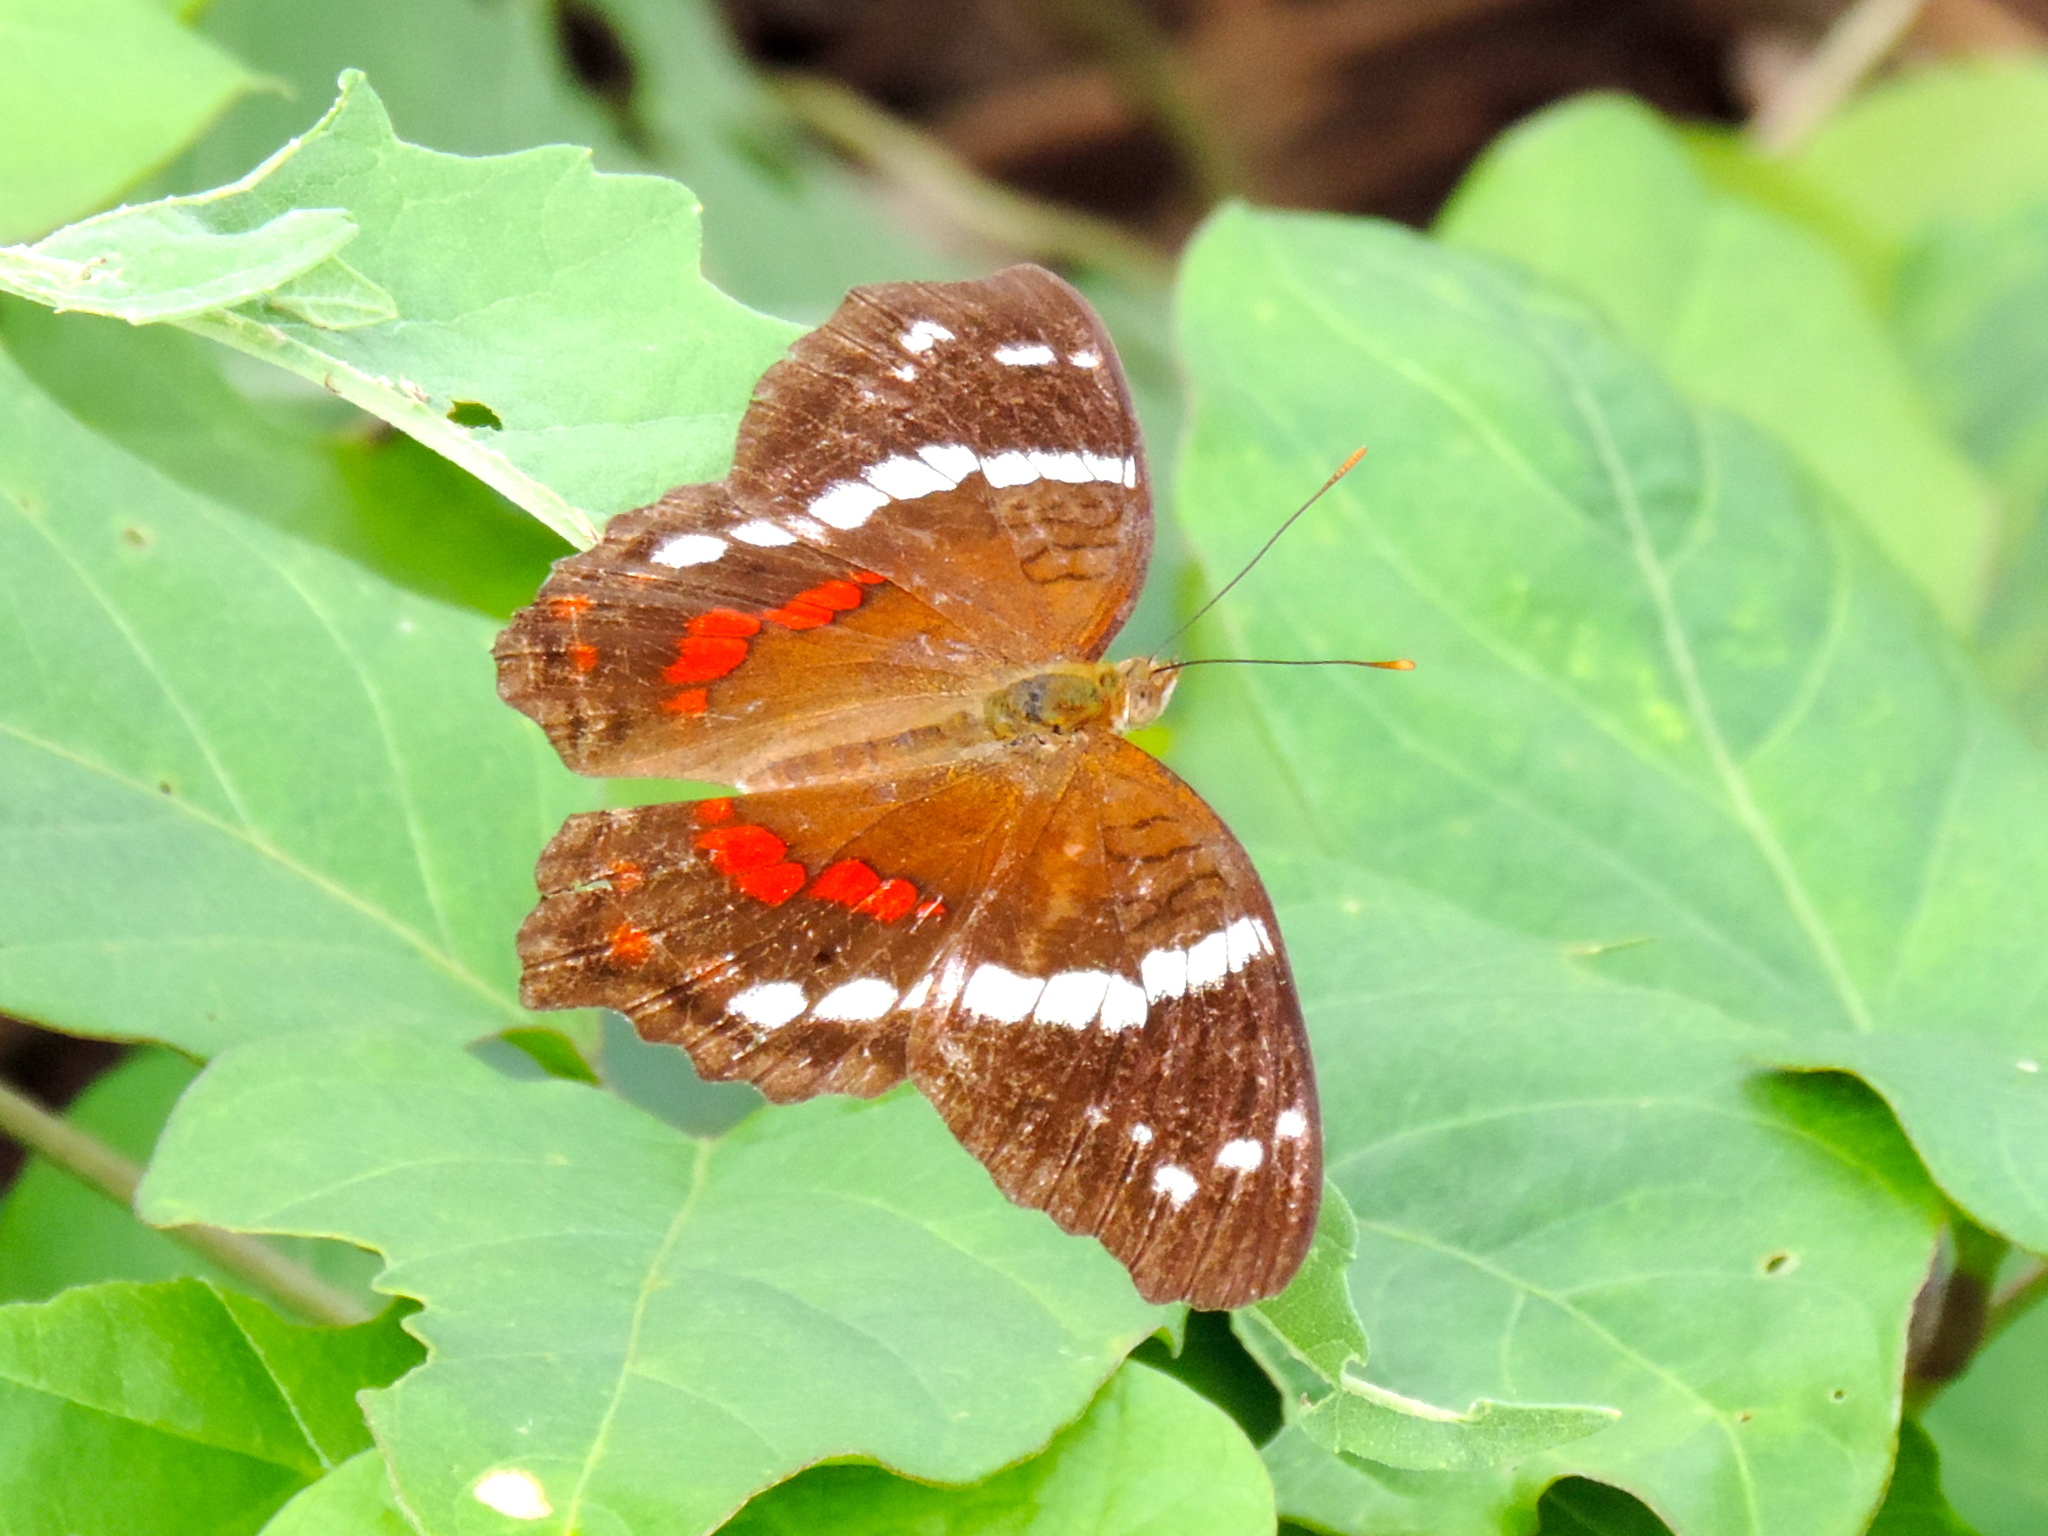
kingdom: Animalia
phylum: Arthropoda
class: Insecta
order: Lepidoptera
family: Nymphalidae
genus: Anartia
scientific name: Anartia fatima
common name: Banded peacock
